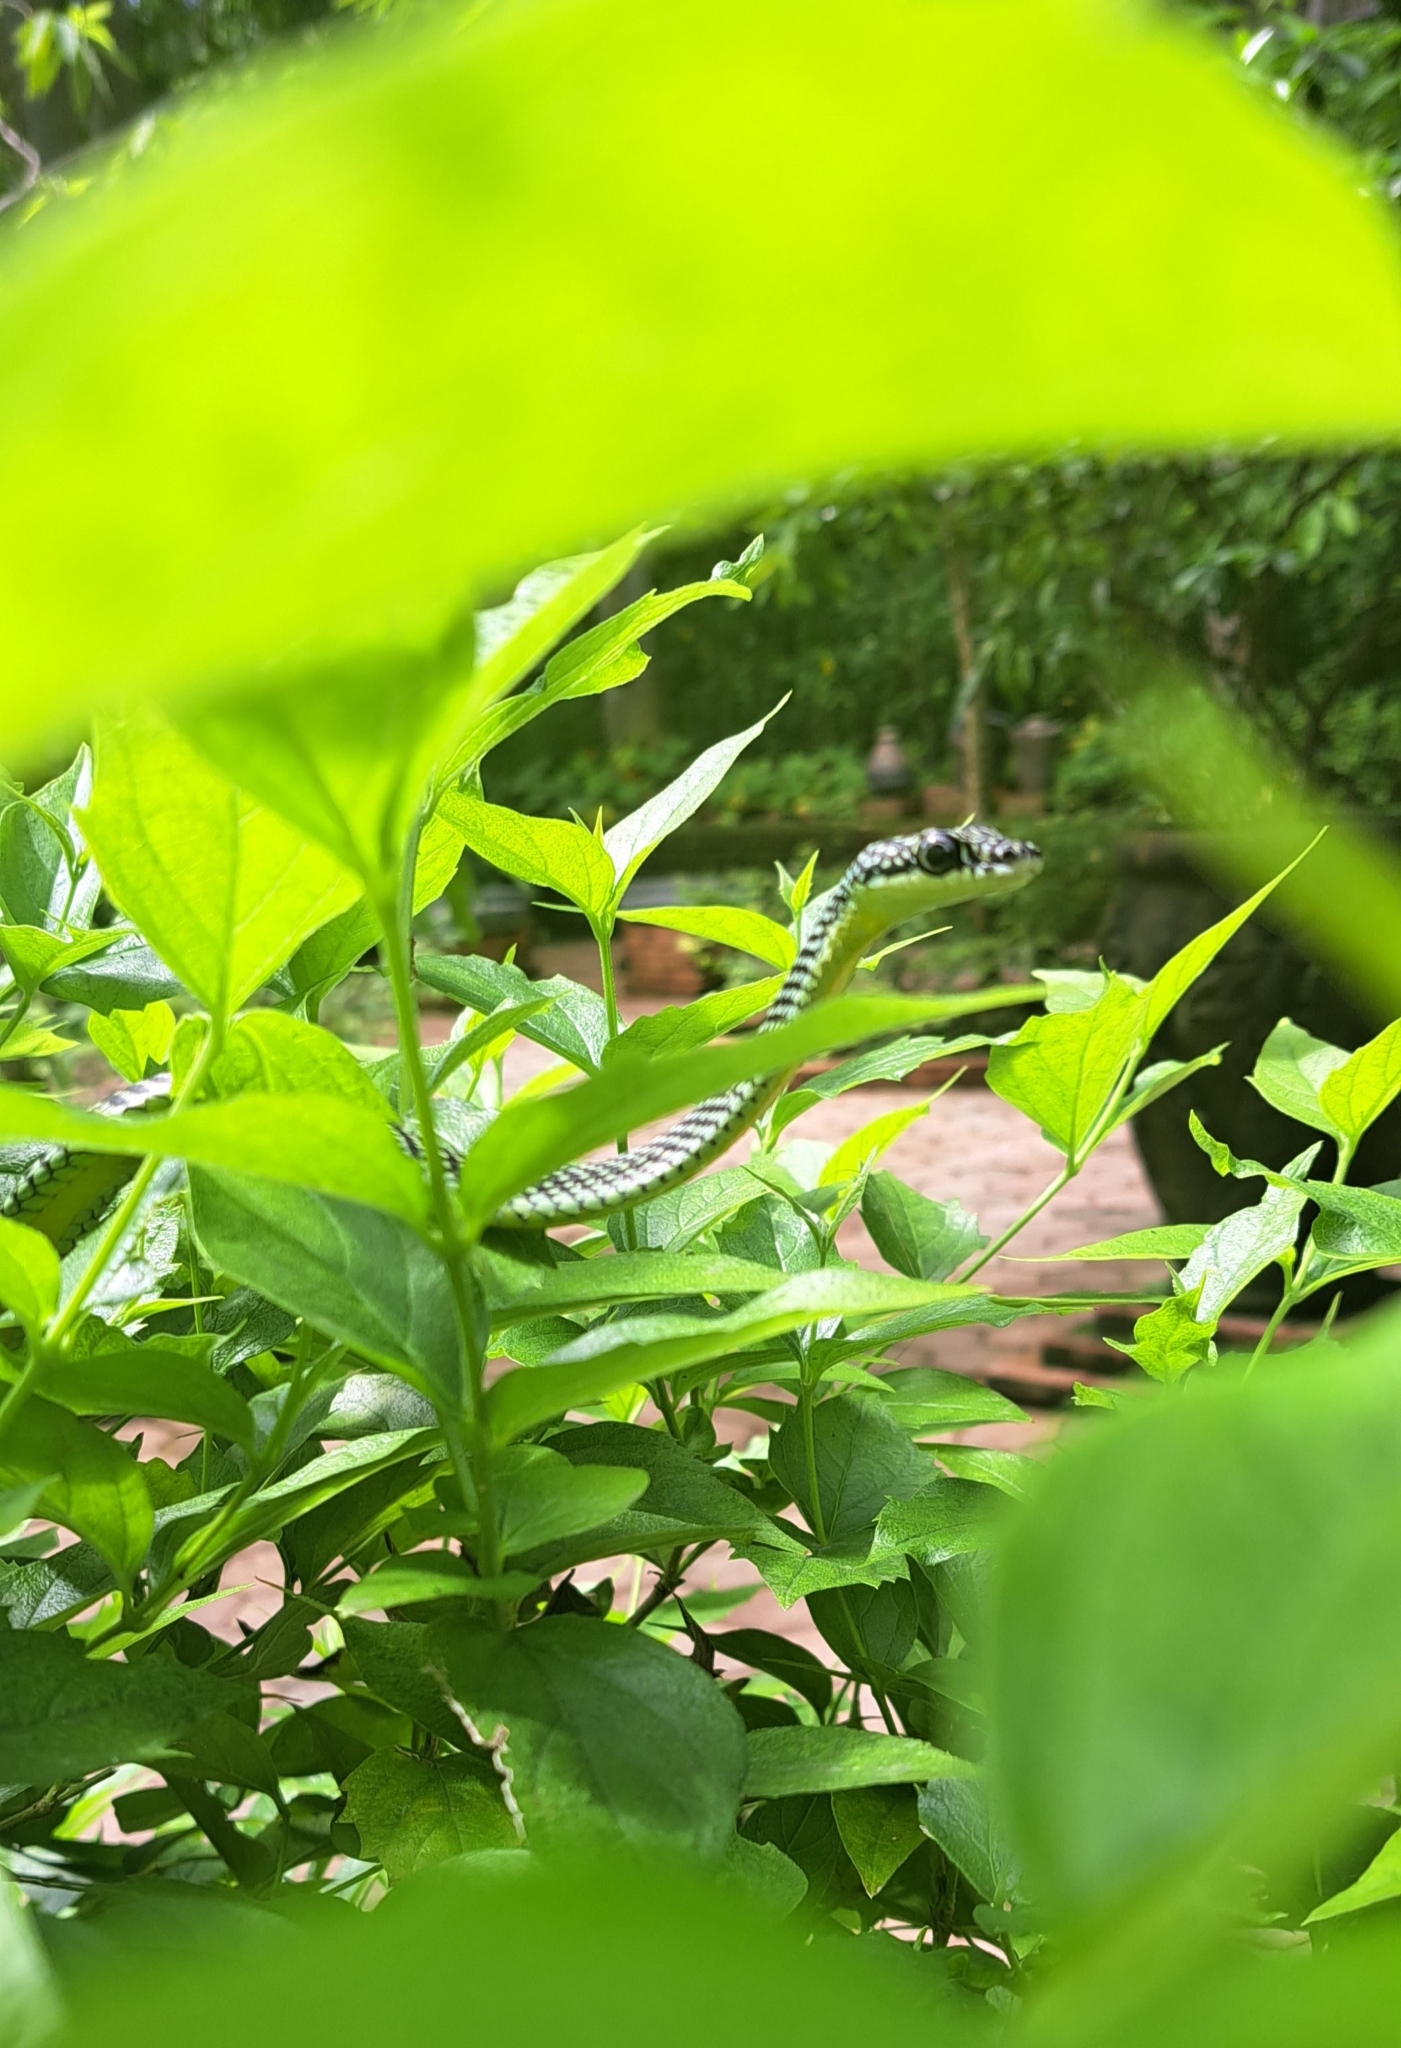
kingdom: Animalia
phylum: Chordata
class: Squamata
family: Colubridae
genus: Chrysopelea
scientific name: Chrysopelea paradisi
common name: Paradise tree snake
